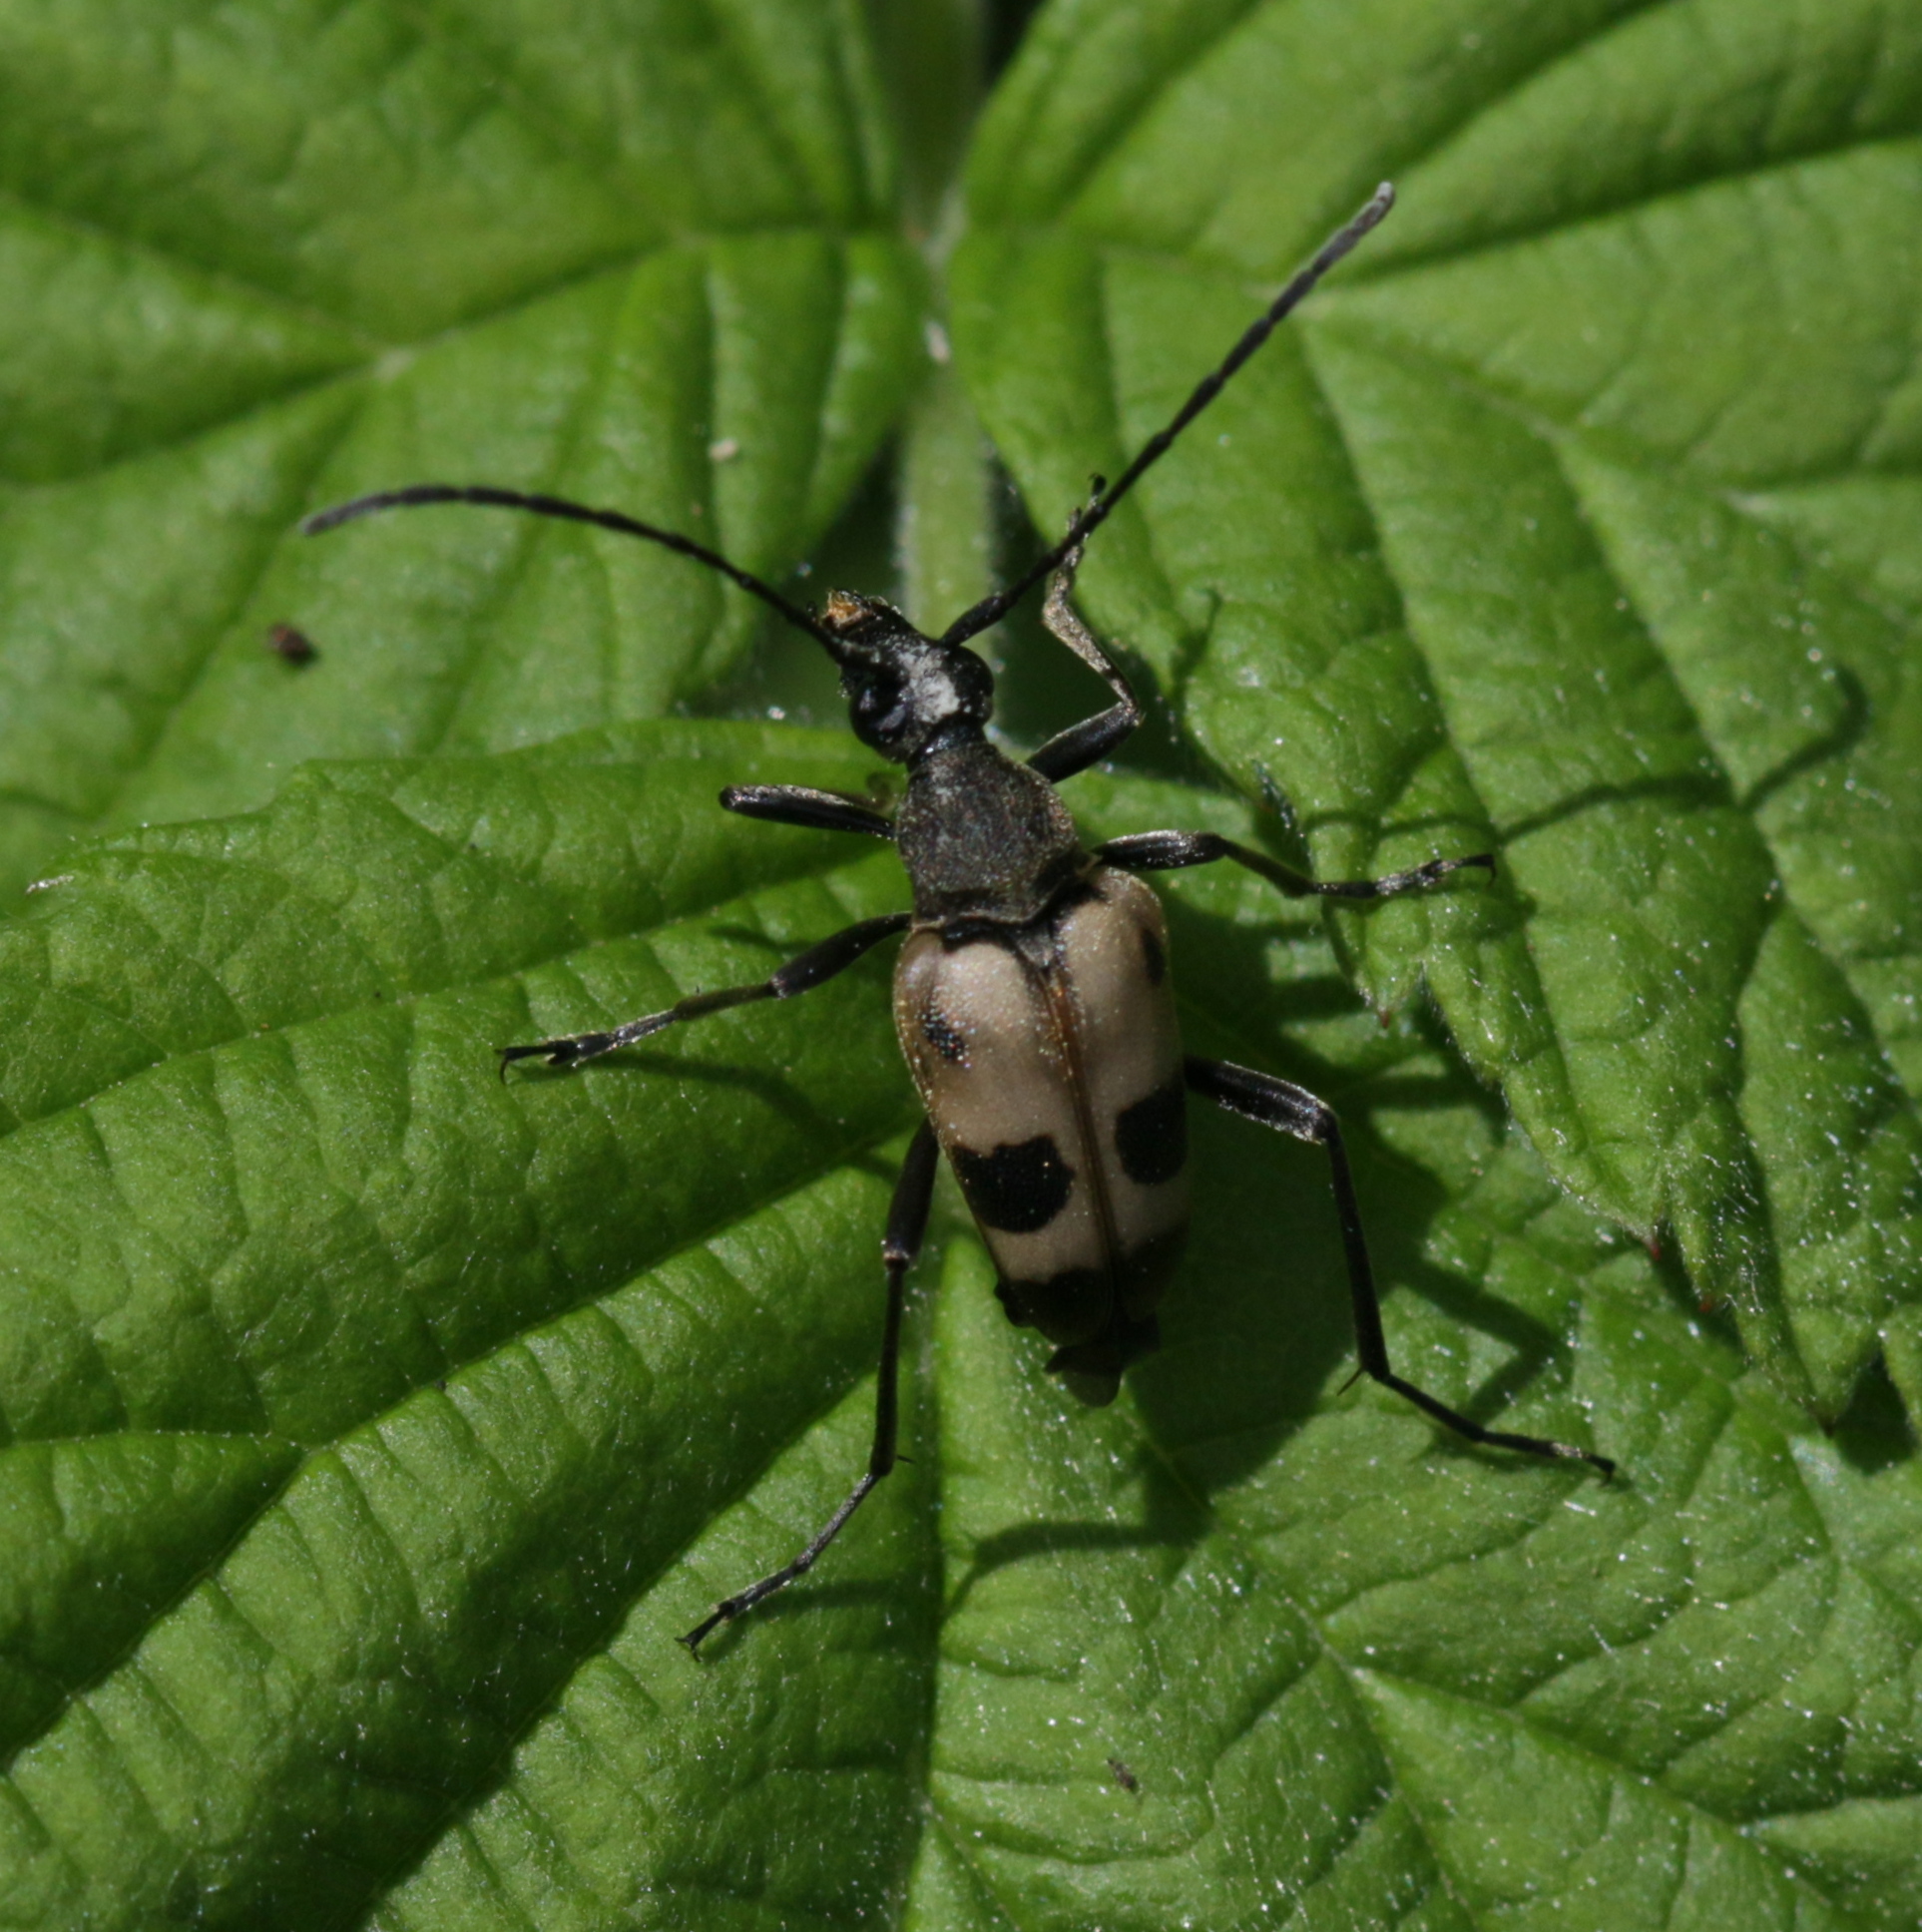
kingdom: Animalia
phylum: Arthropoda
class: Insecta
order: Coleoptera
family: Cerambycidae
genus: Pachytodes
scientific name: Pachytodes cerambyciformis
